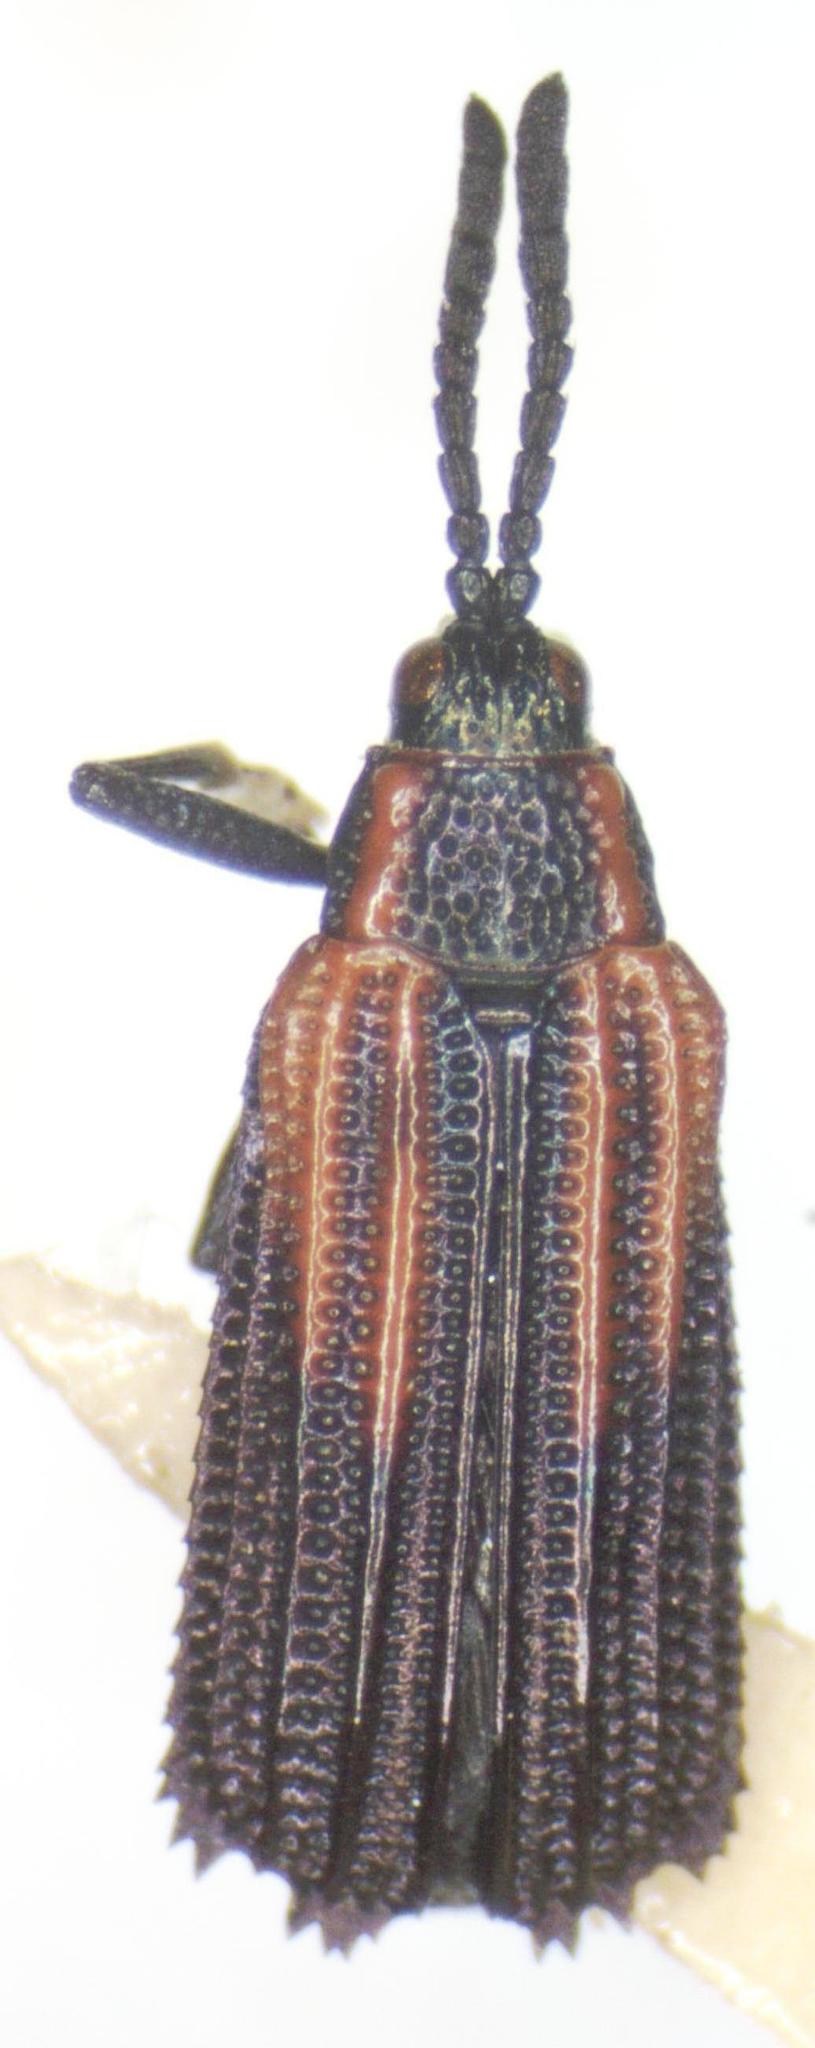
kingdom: Animalia
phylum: Arthropoda
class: Insecta
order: Coleoptera
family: Chrysomelidae
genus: Pentispa
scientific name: Pentispa clarkella
